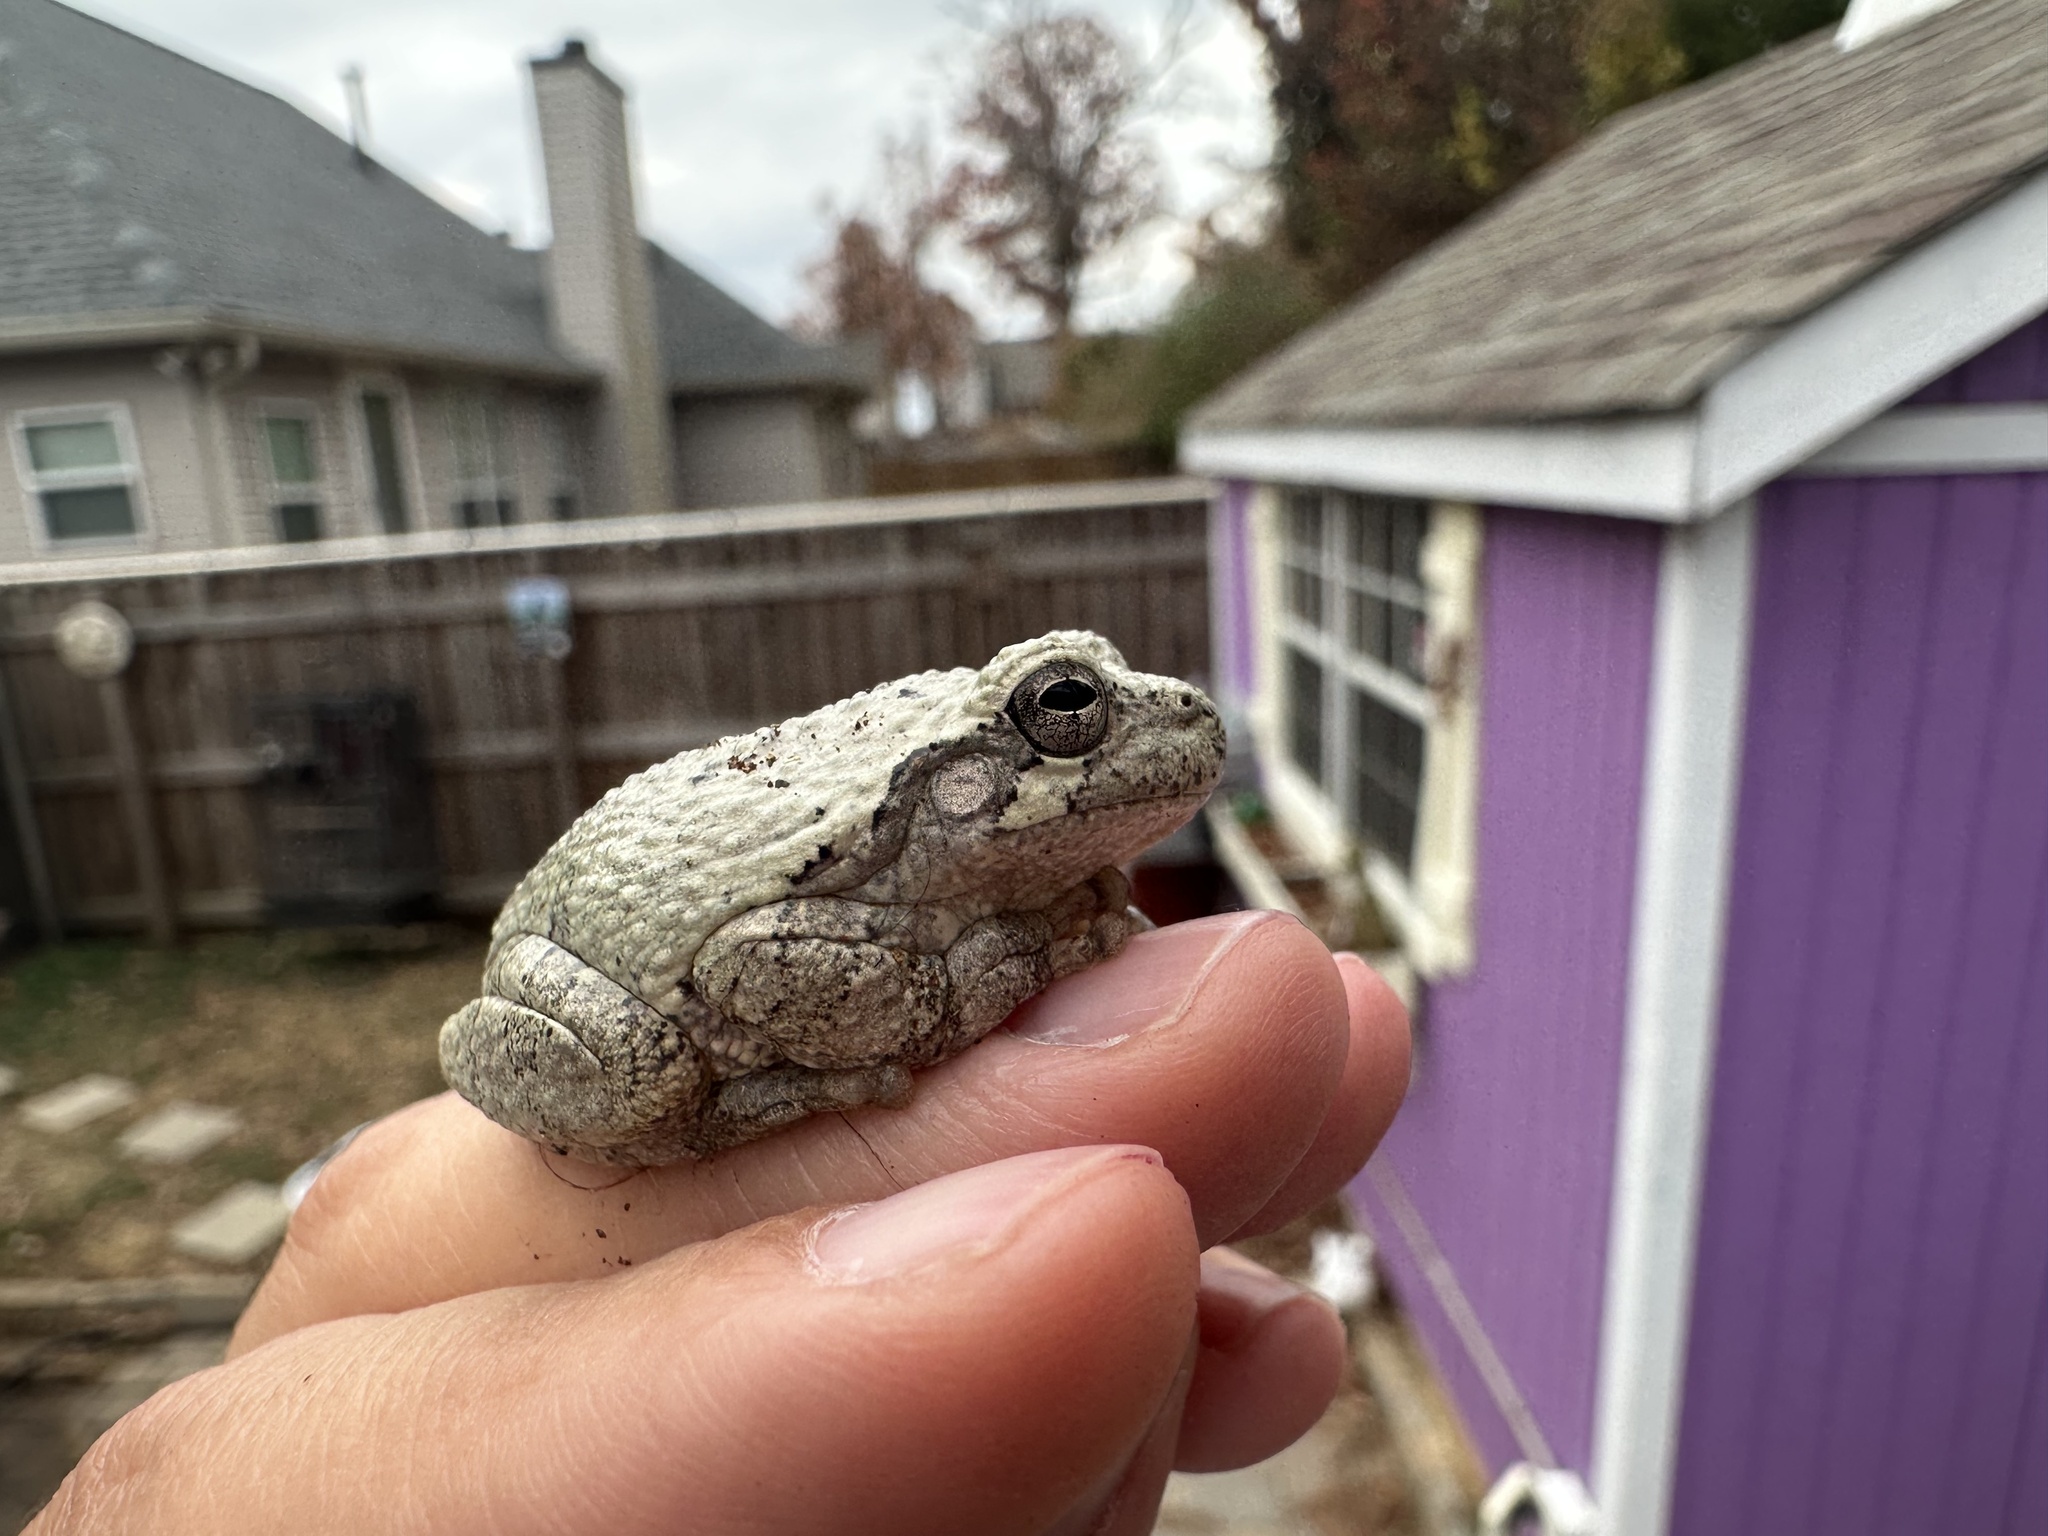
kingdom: Animalia
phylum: Chordata
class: Amphibia
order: Anura
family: Hylidae
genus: Dryophytes
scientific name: Dryophytes chrysoscelis
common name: Cope's gray treefrog
